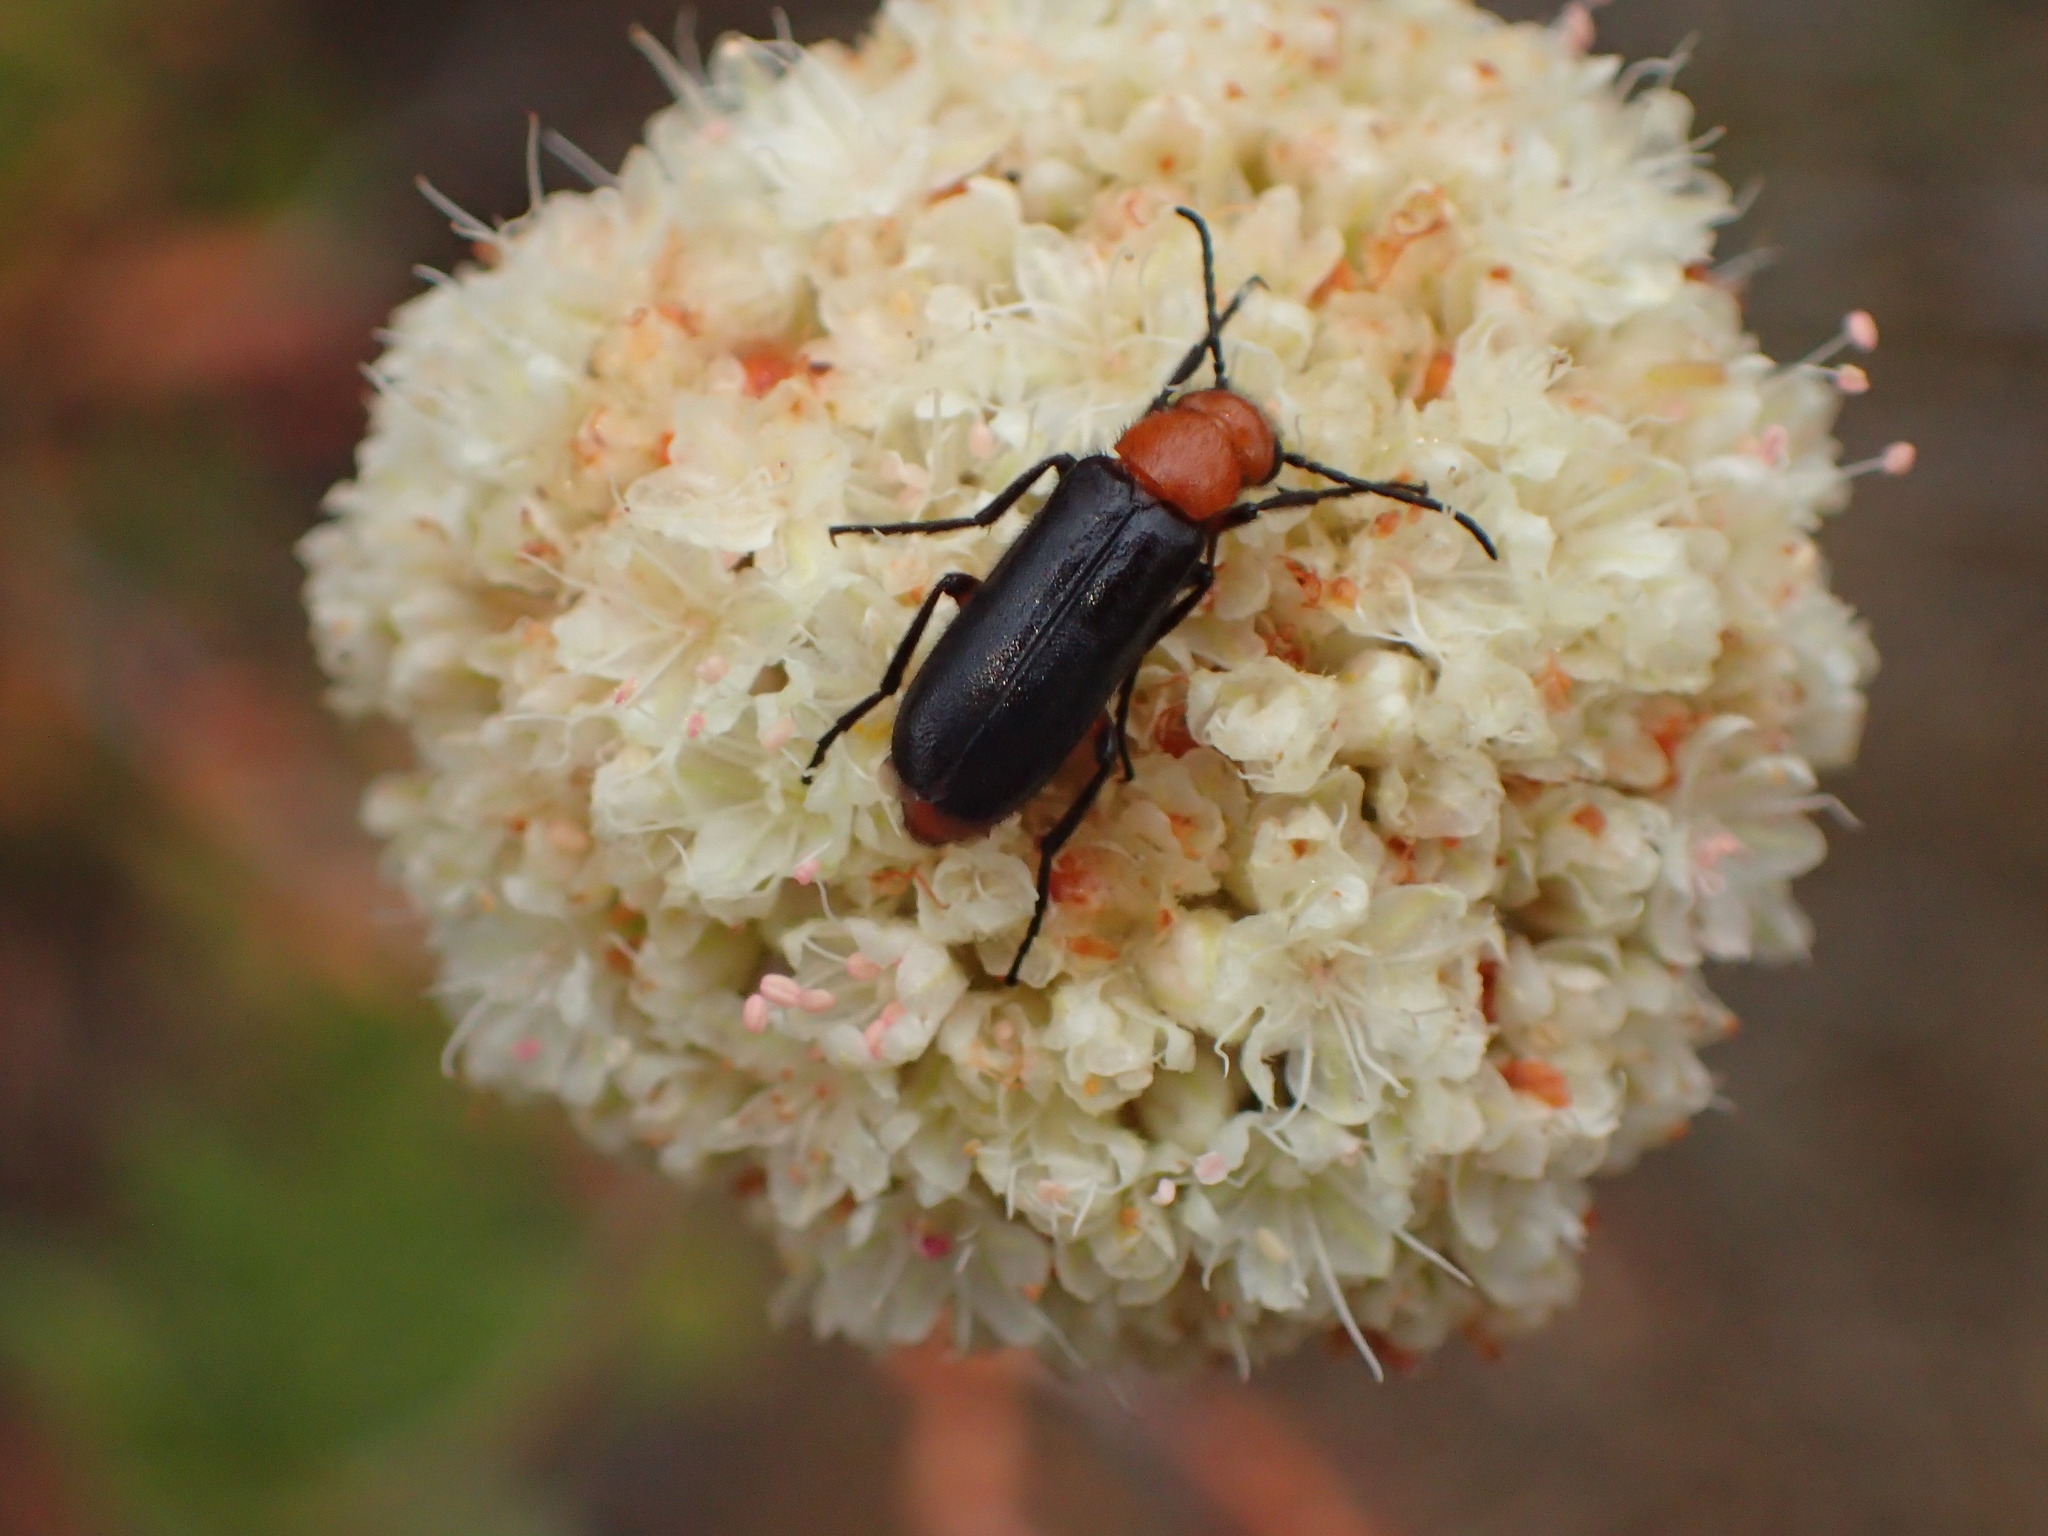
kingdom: Animalia
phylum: Arthropoda
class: Insecta
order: Coleoptera
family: Meloidae
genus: Nemognatha
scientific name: Nemognatha nigripennis
